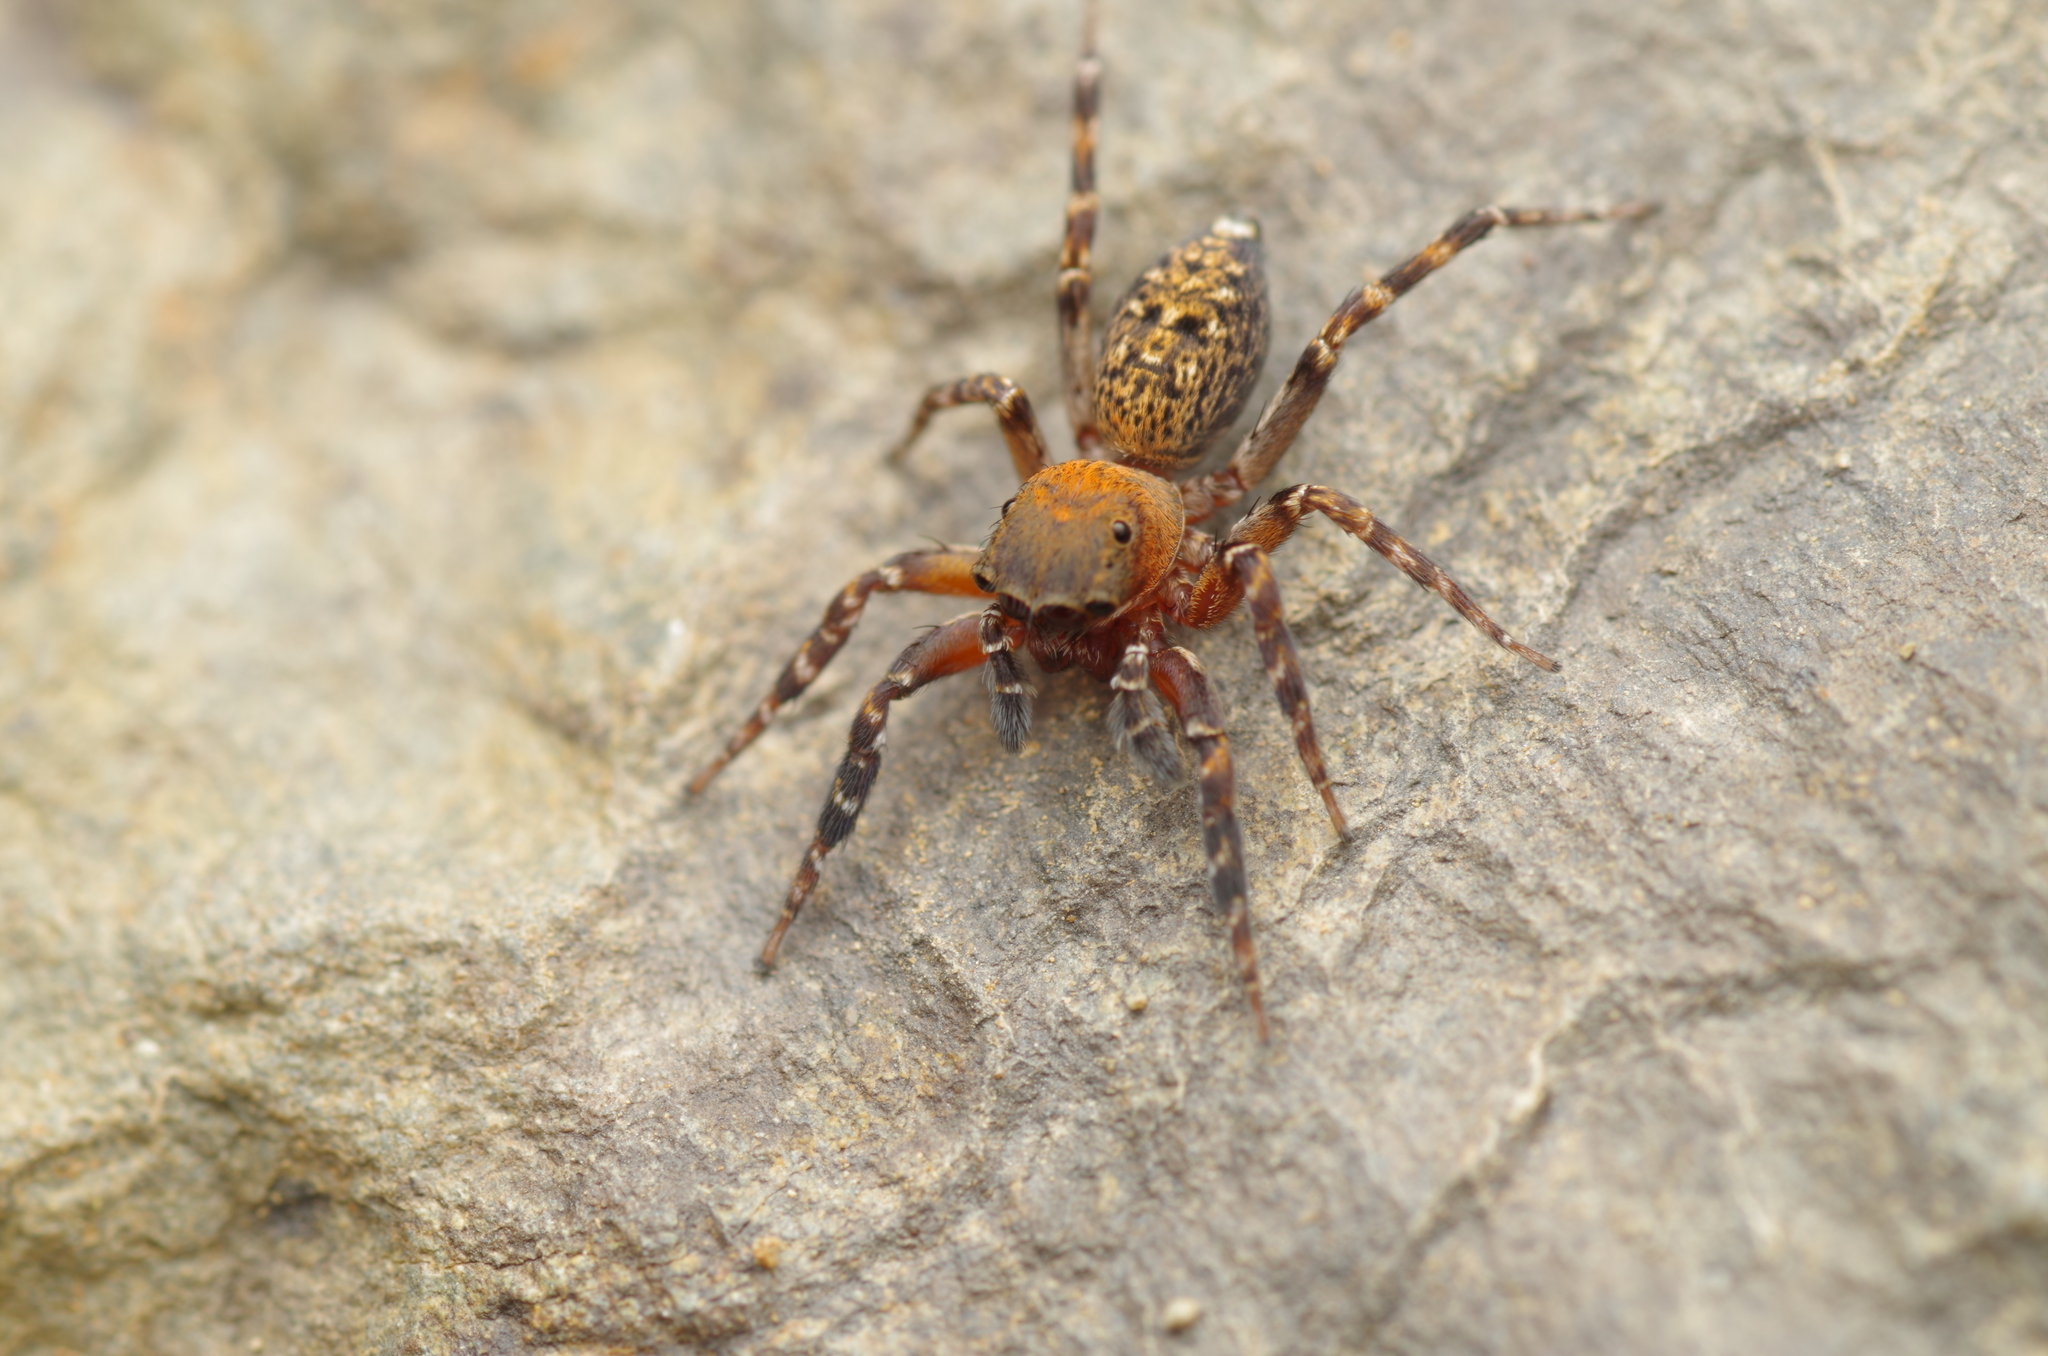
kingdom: Animalia
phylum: Arthropoda
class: Arachnida
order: Araneae
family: Salticidae
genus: Cyrba
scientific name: Cyrba algerina
